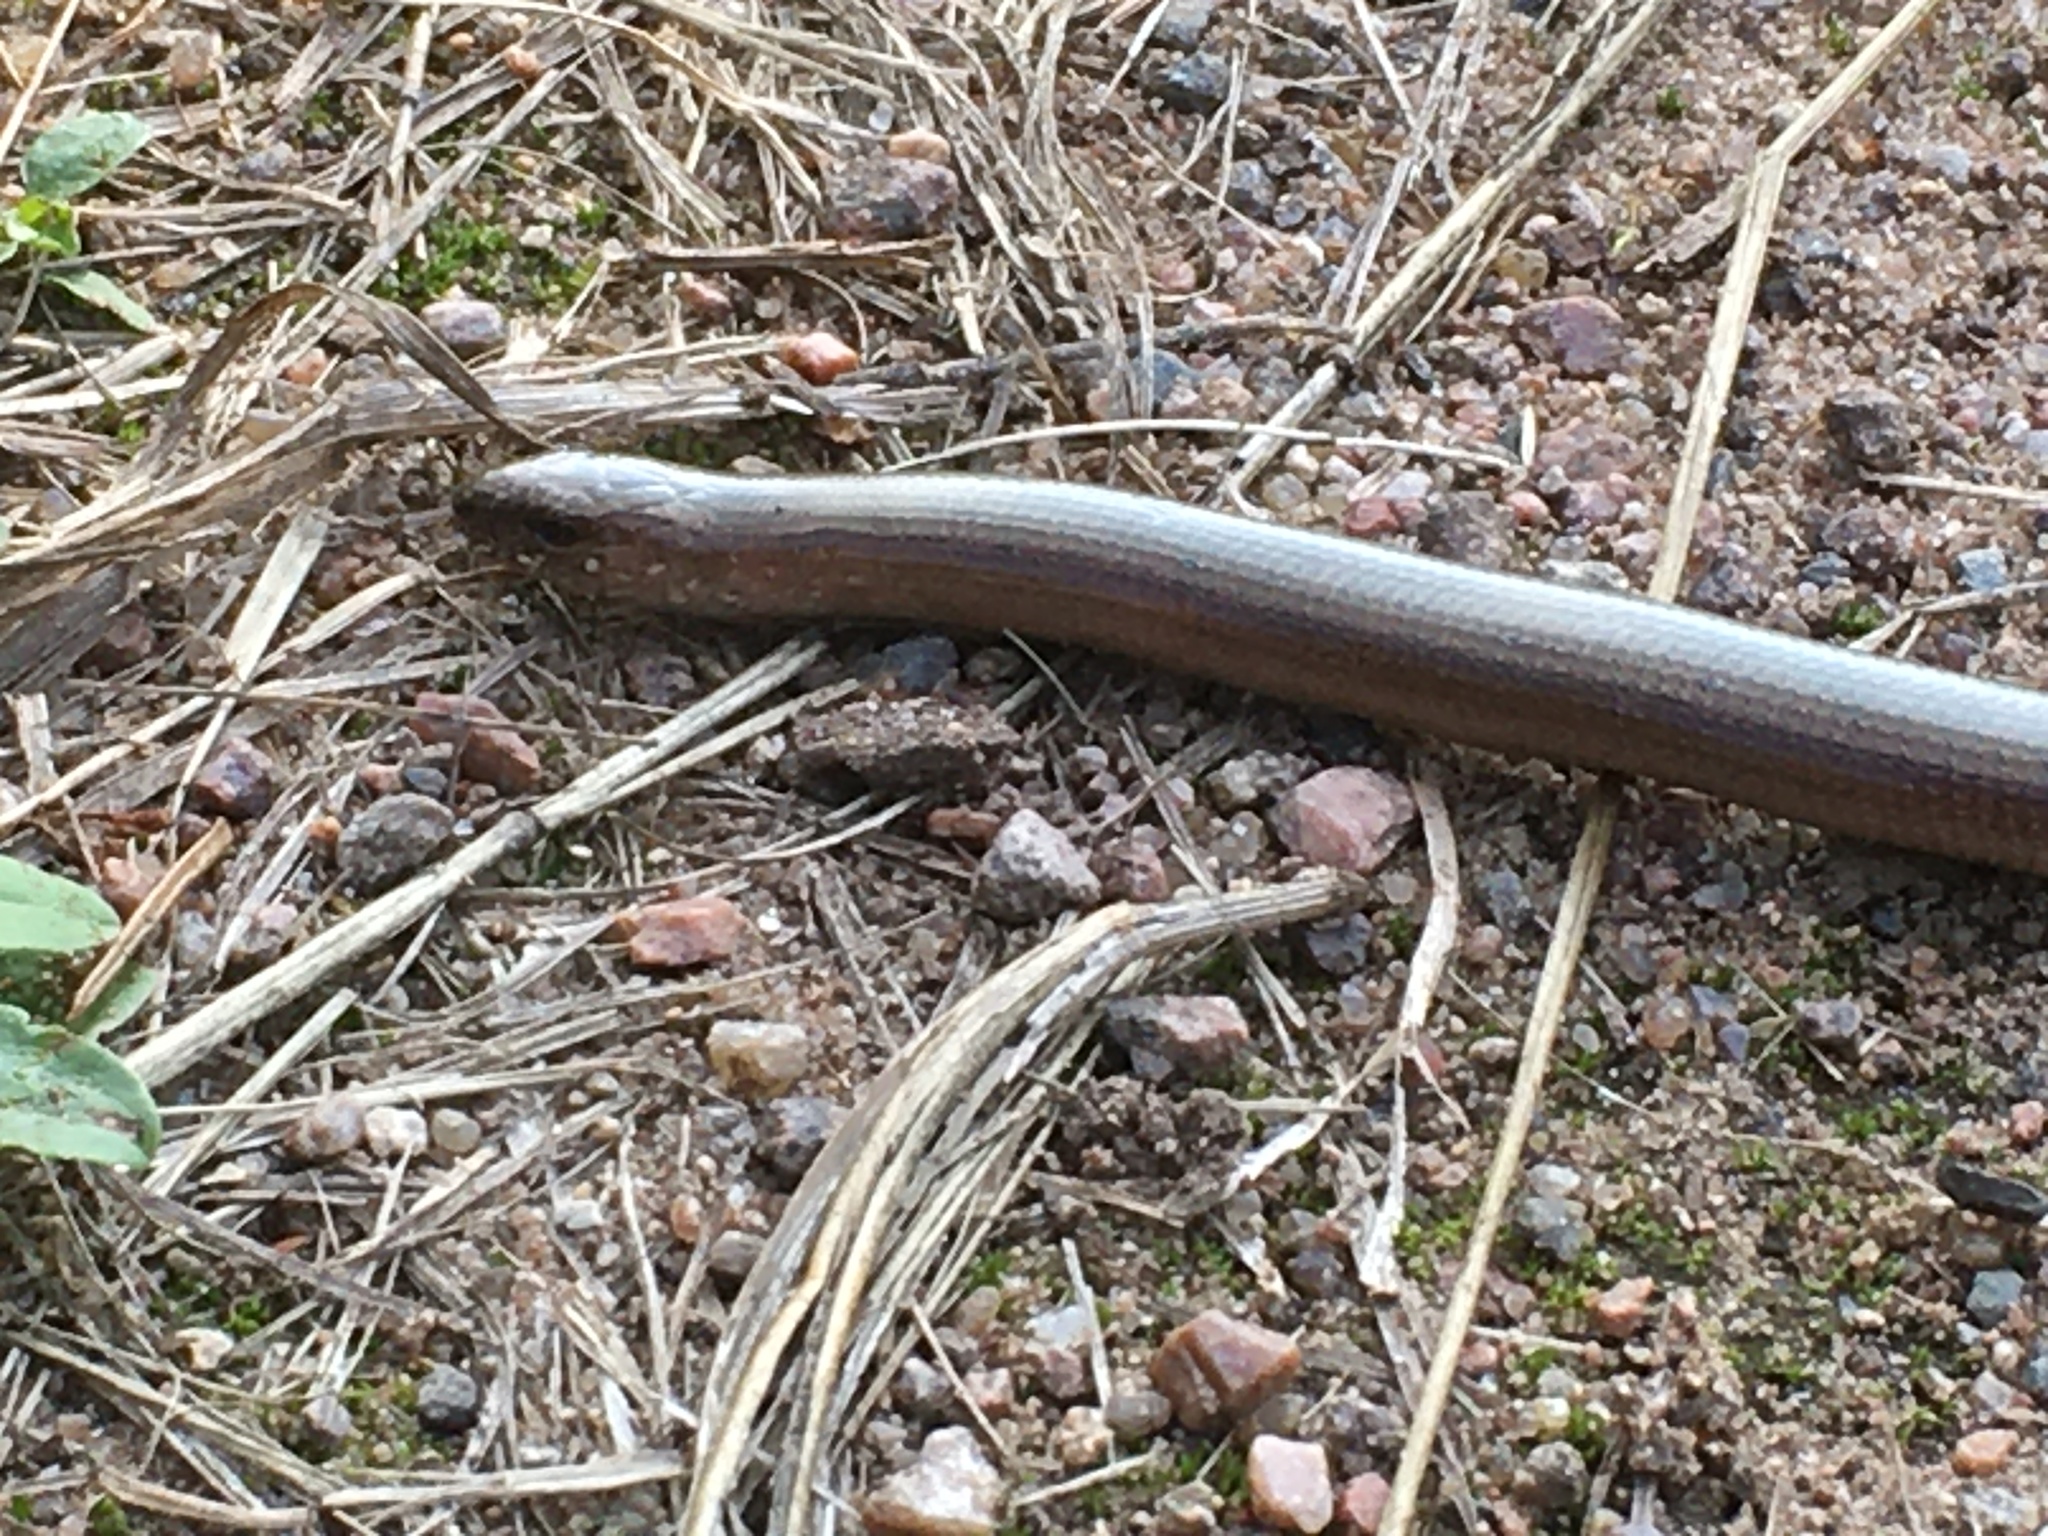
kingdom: Animalia
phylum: Chordata
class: Squamata
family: Anguidae
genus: Anguis
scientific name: Anguis colchica
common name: Slow worm
